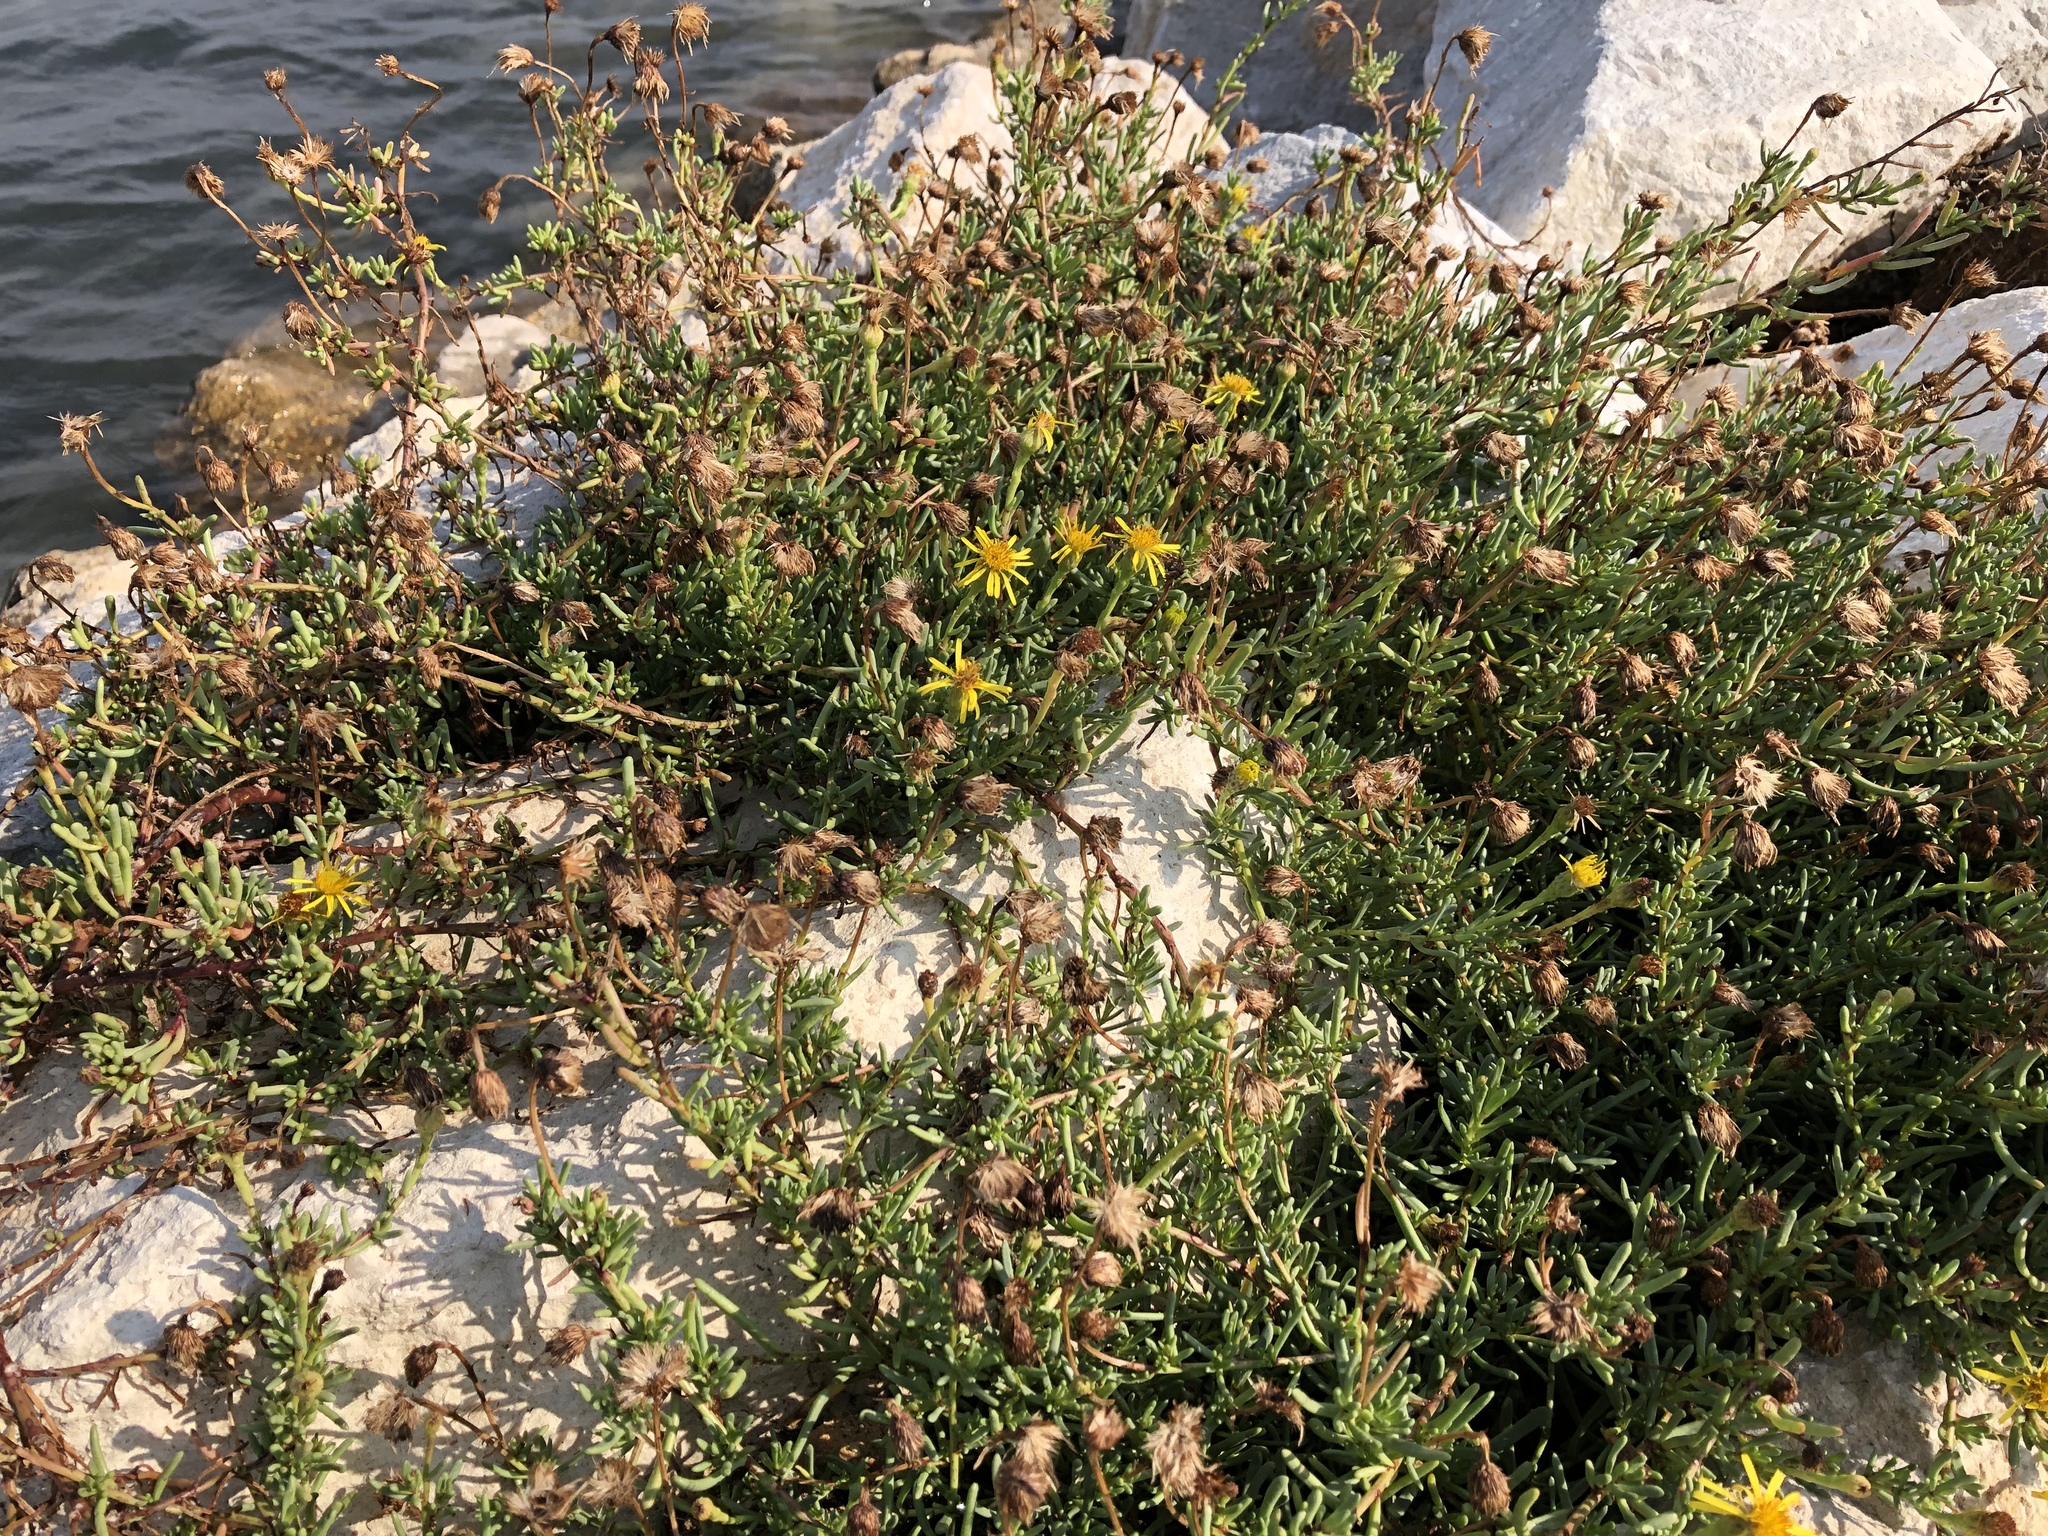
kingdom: Plantae
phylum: Tracheophyta
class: Magnoliopsida
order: Asterales
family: Asteraceae
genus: Limbarda
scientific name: Limbarda crithmoides
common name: Golden samphire
